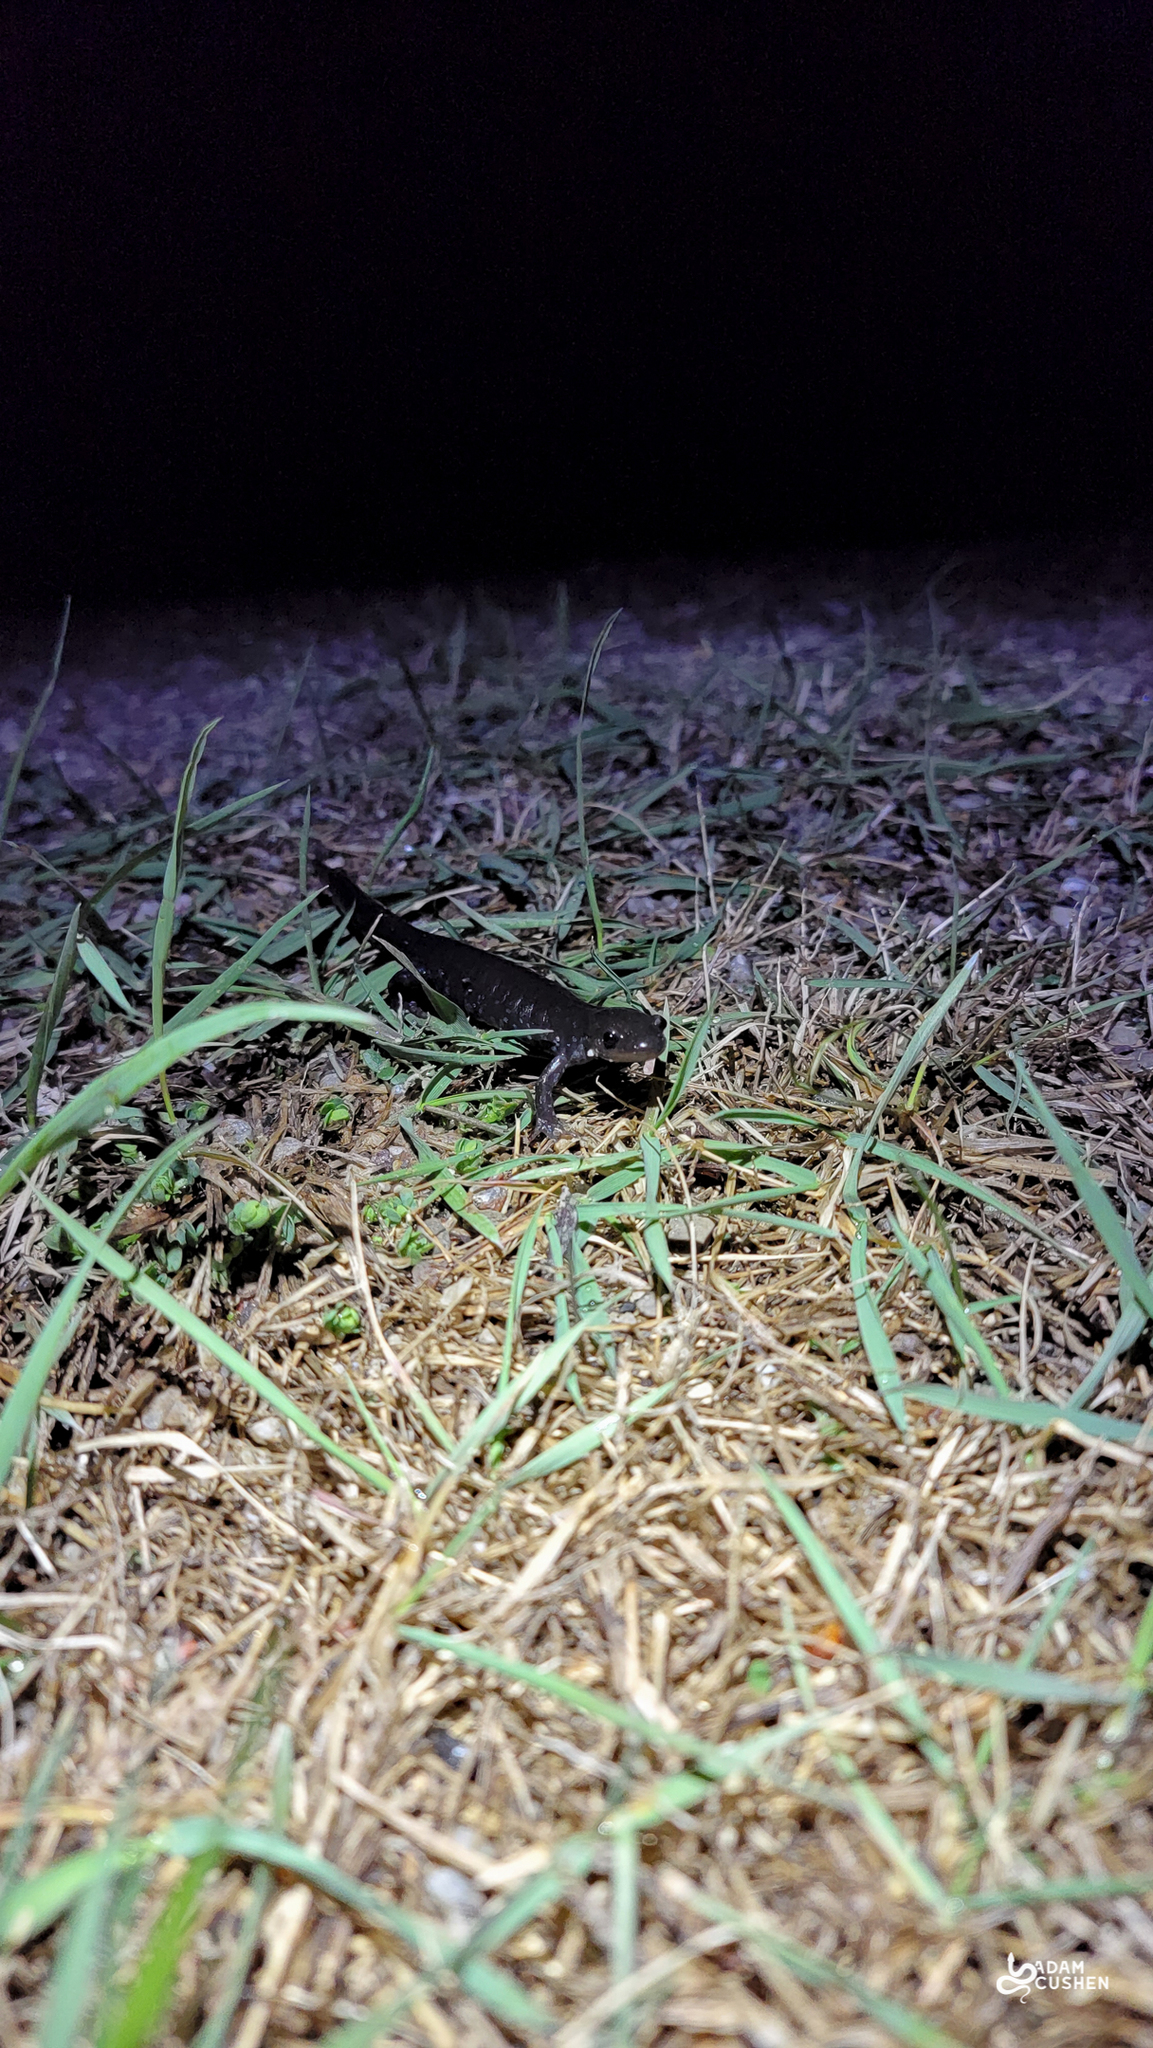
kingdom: Animalia
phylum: Chordata
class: Amphibia
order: Caudata
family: Ambystomatidae
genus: Ambystoma
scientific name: Ambystoma laterale
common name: Blue-spotted salamander
